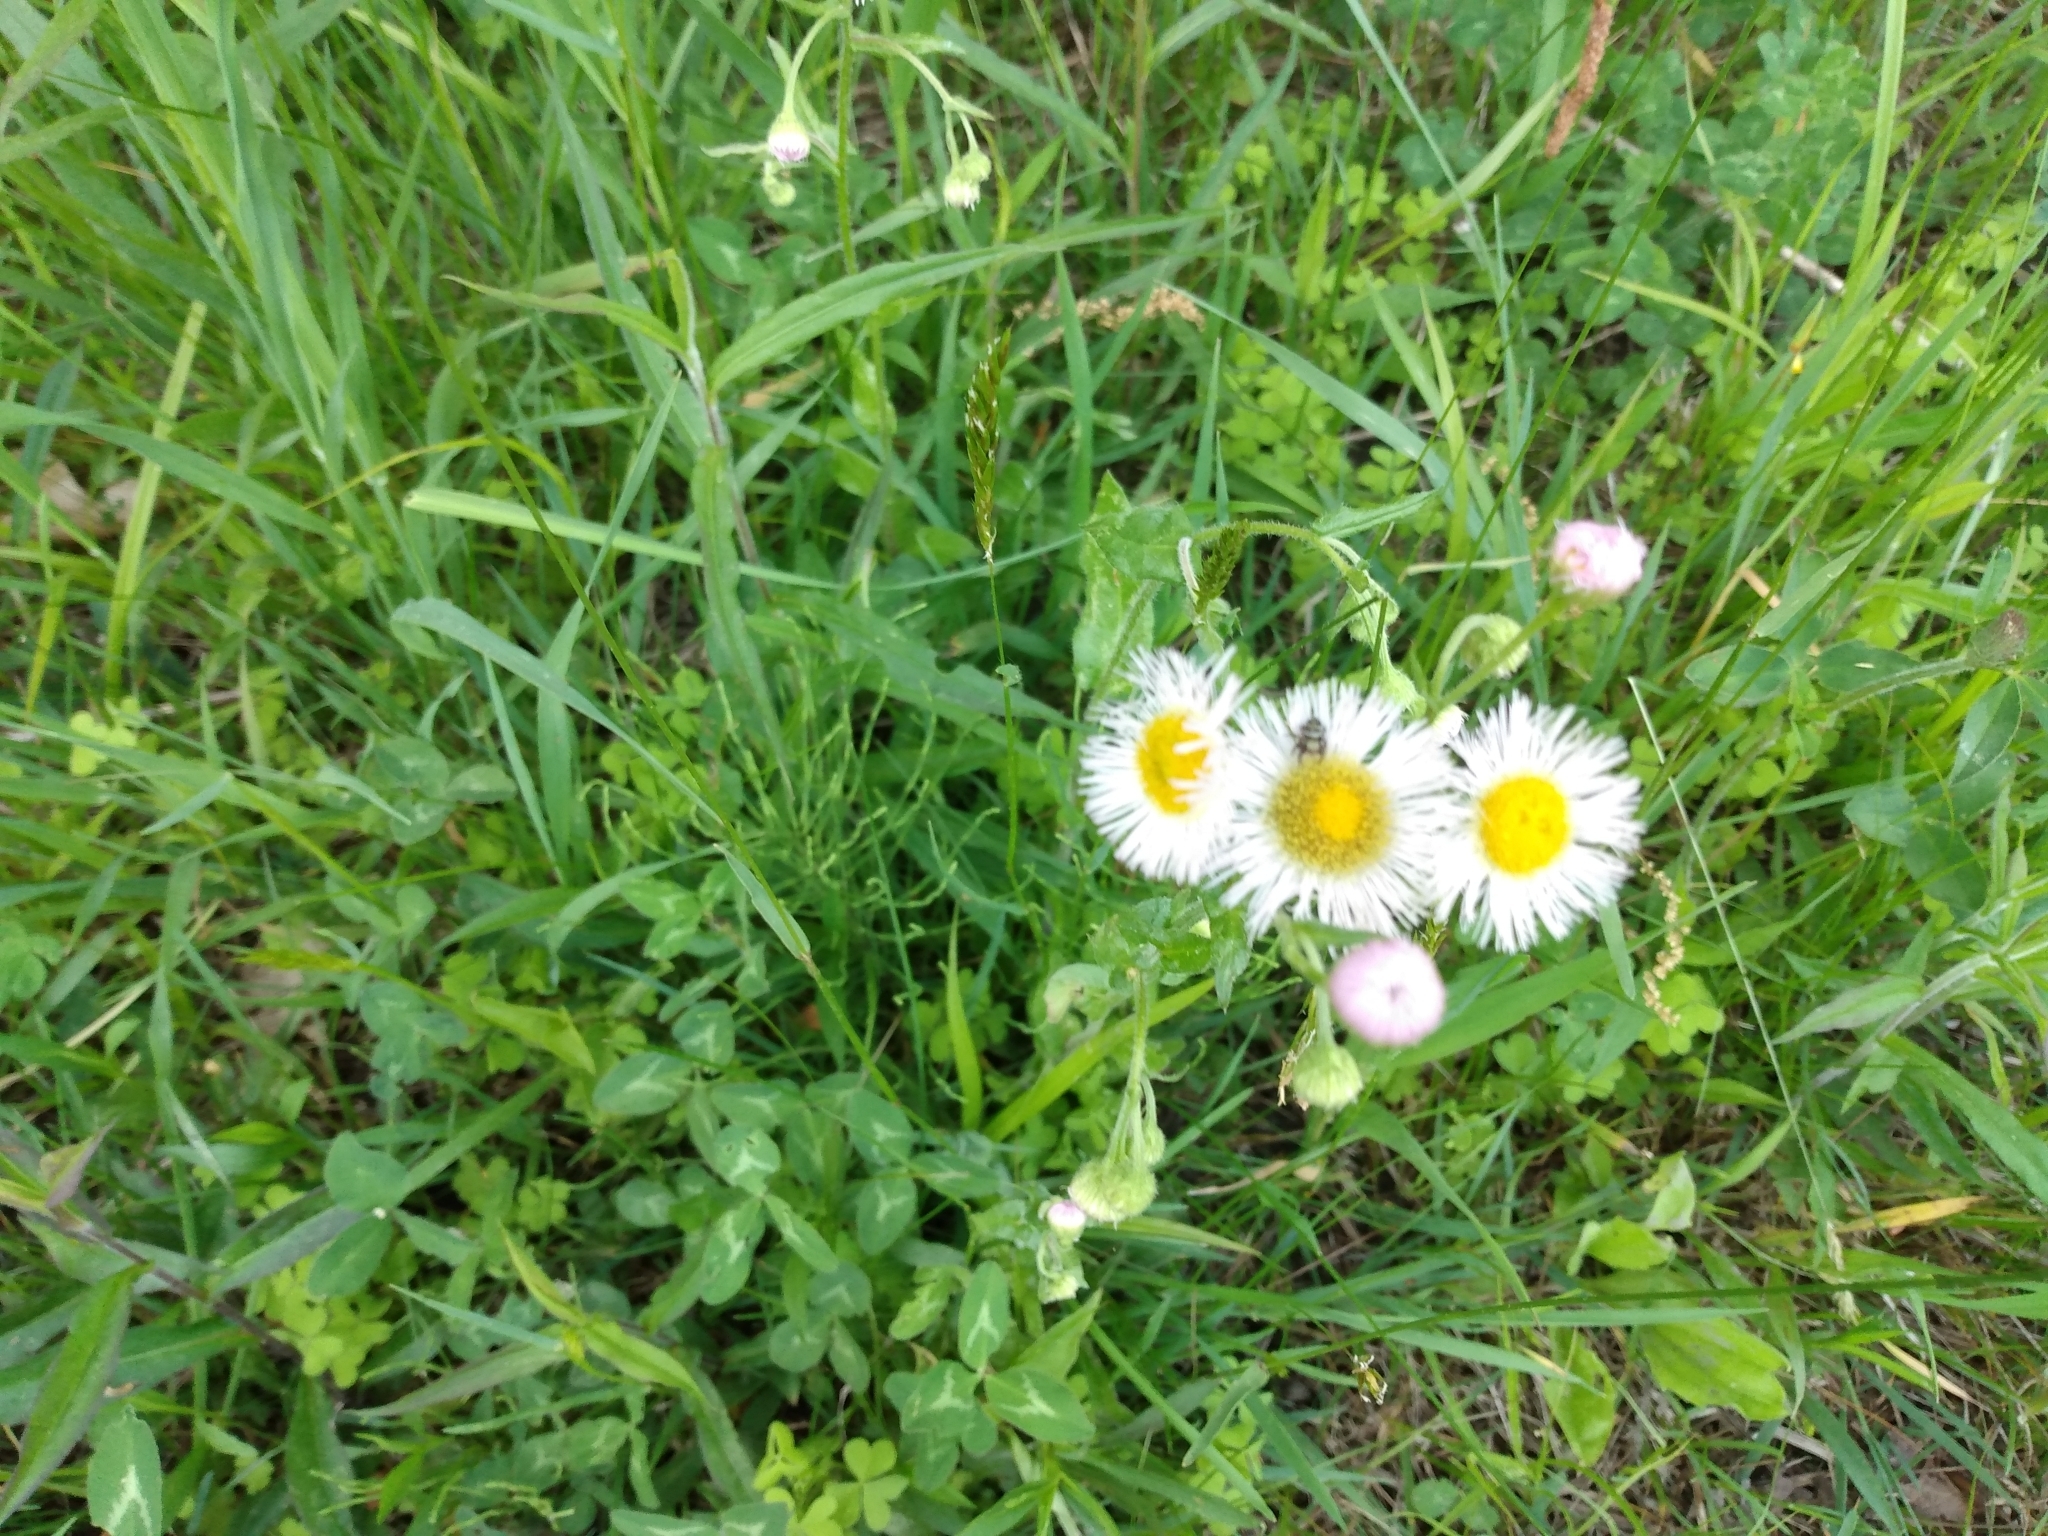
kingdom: Plantae
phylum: Tracheophyta
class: Magnoliopsida
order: Asterales
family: Asteraceae
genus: Erigeron
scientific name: Erigeron philadelphicus
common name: Robin's-plantain
